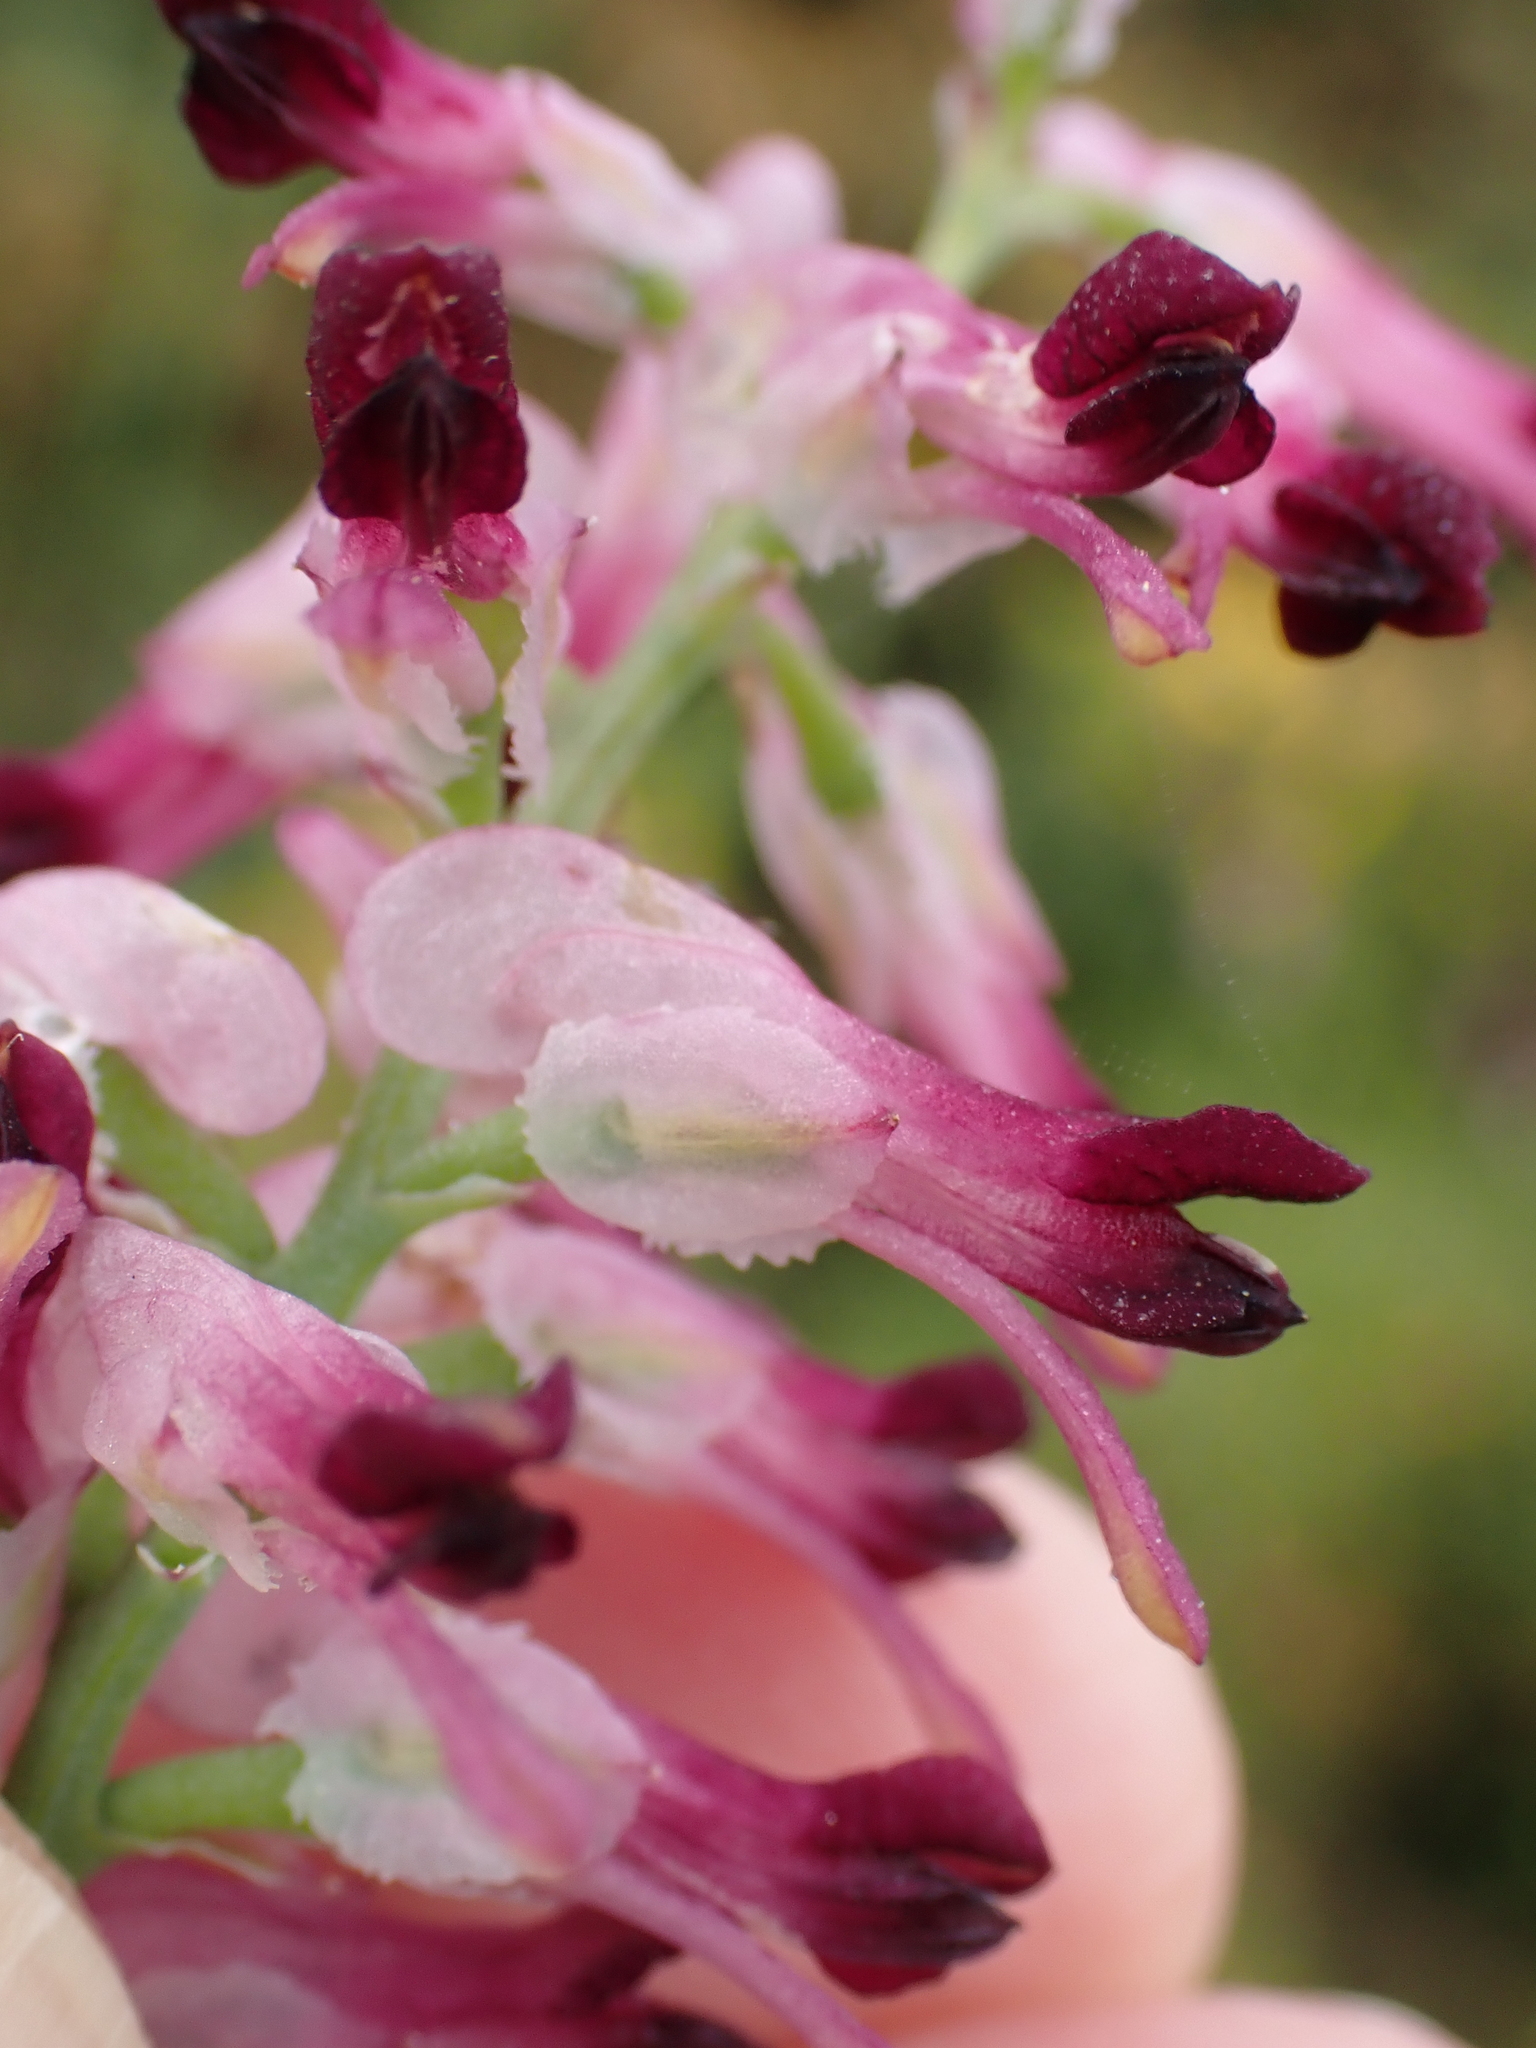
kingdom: Plantae
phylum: Tracheophyta
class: Magnoliopsida
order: Ranunculales
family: Papaveraceae
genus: Fumaria
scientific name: Fumaria muralis
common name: Common ramping-fumitory
